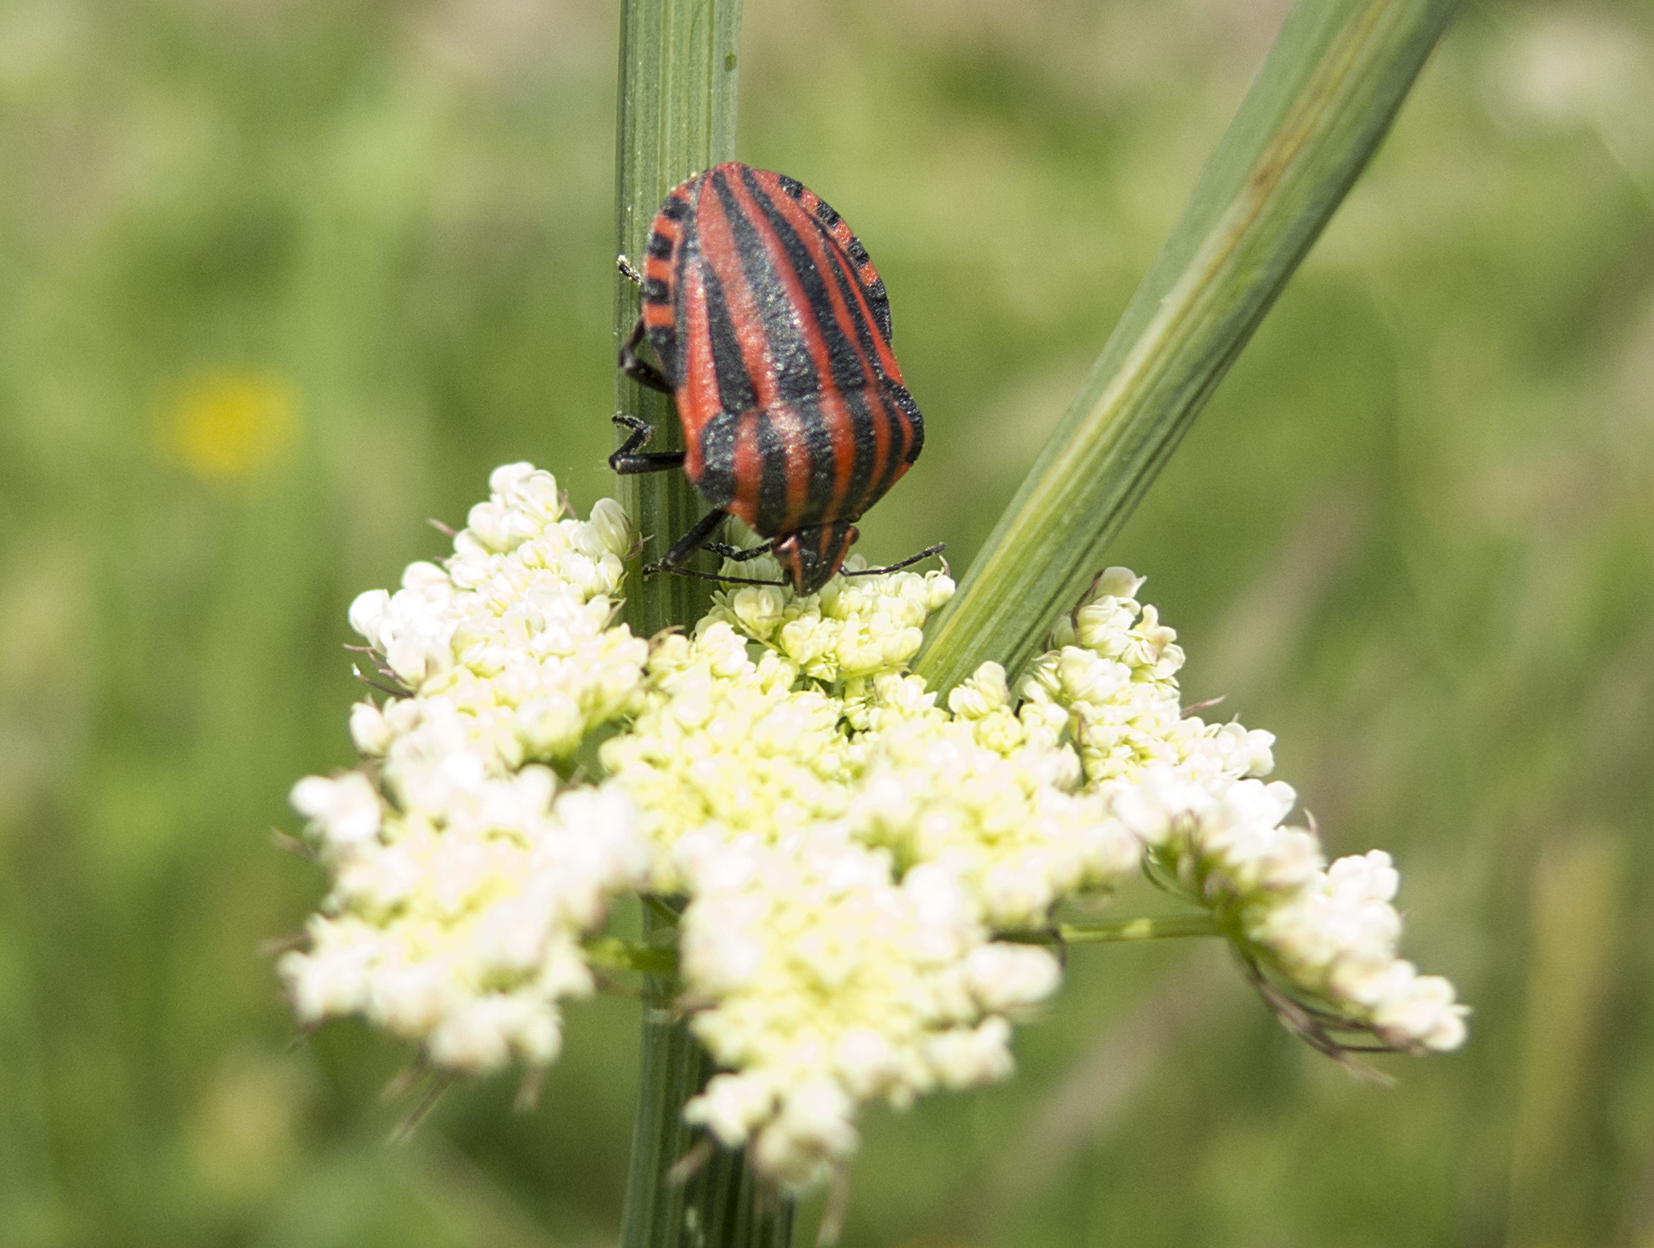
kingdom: Animalia
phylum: Arthropoda
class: Insecta
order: Hemiptera
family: Pentatomidae
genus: Graphosoma
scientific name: Graphosoma italicum
